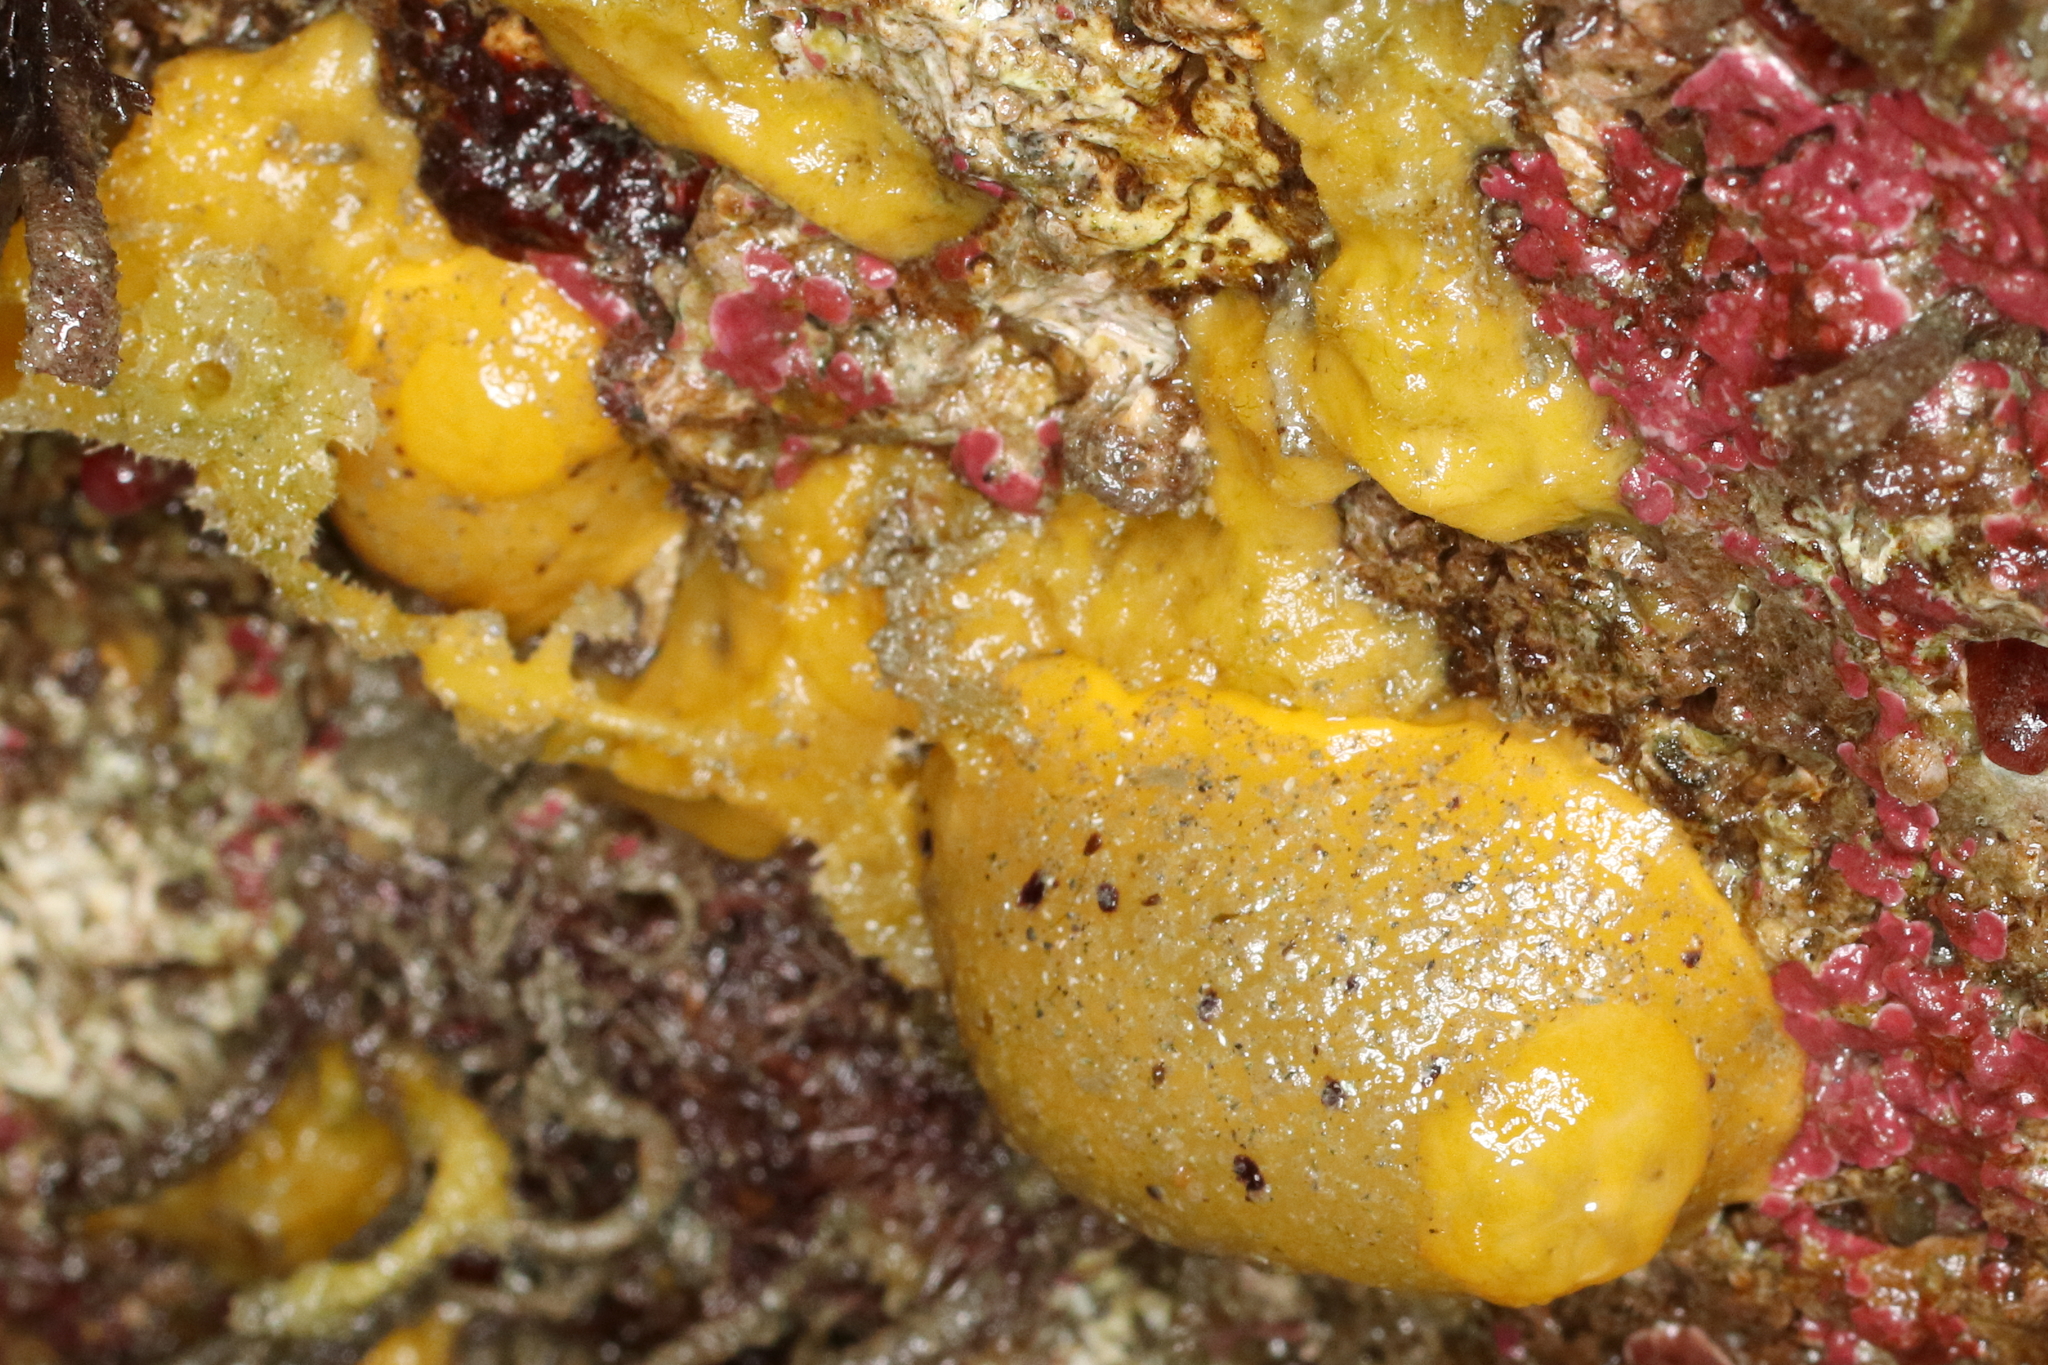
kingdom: Animalia
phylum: Mollusca
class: Gastropoda
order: Nudibranchia
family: Dorididae
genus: Doris
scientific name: Doris montereyensis
